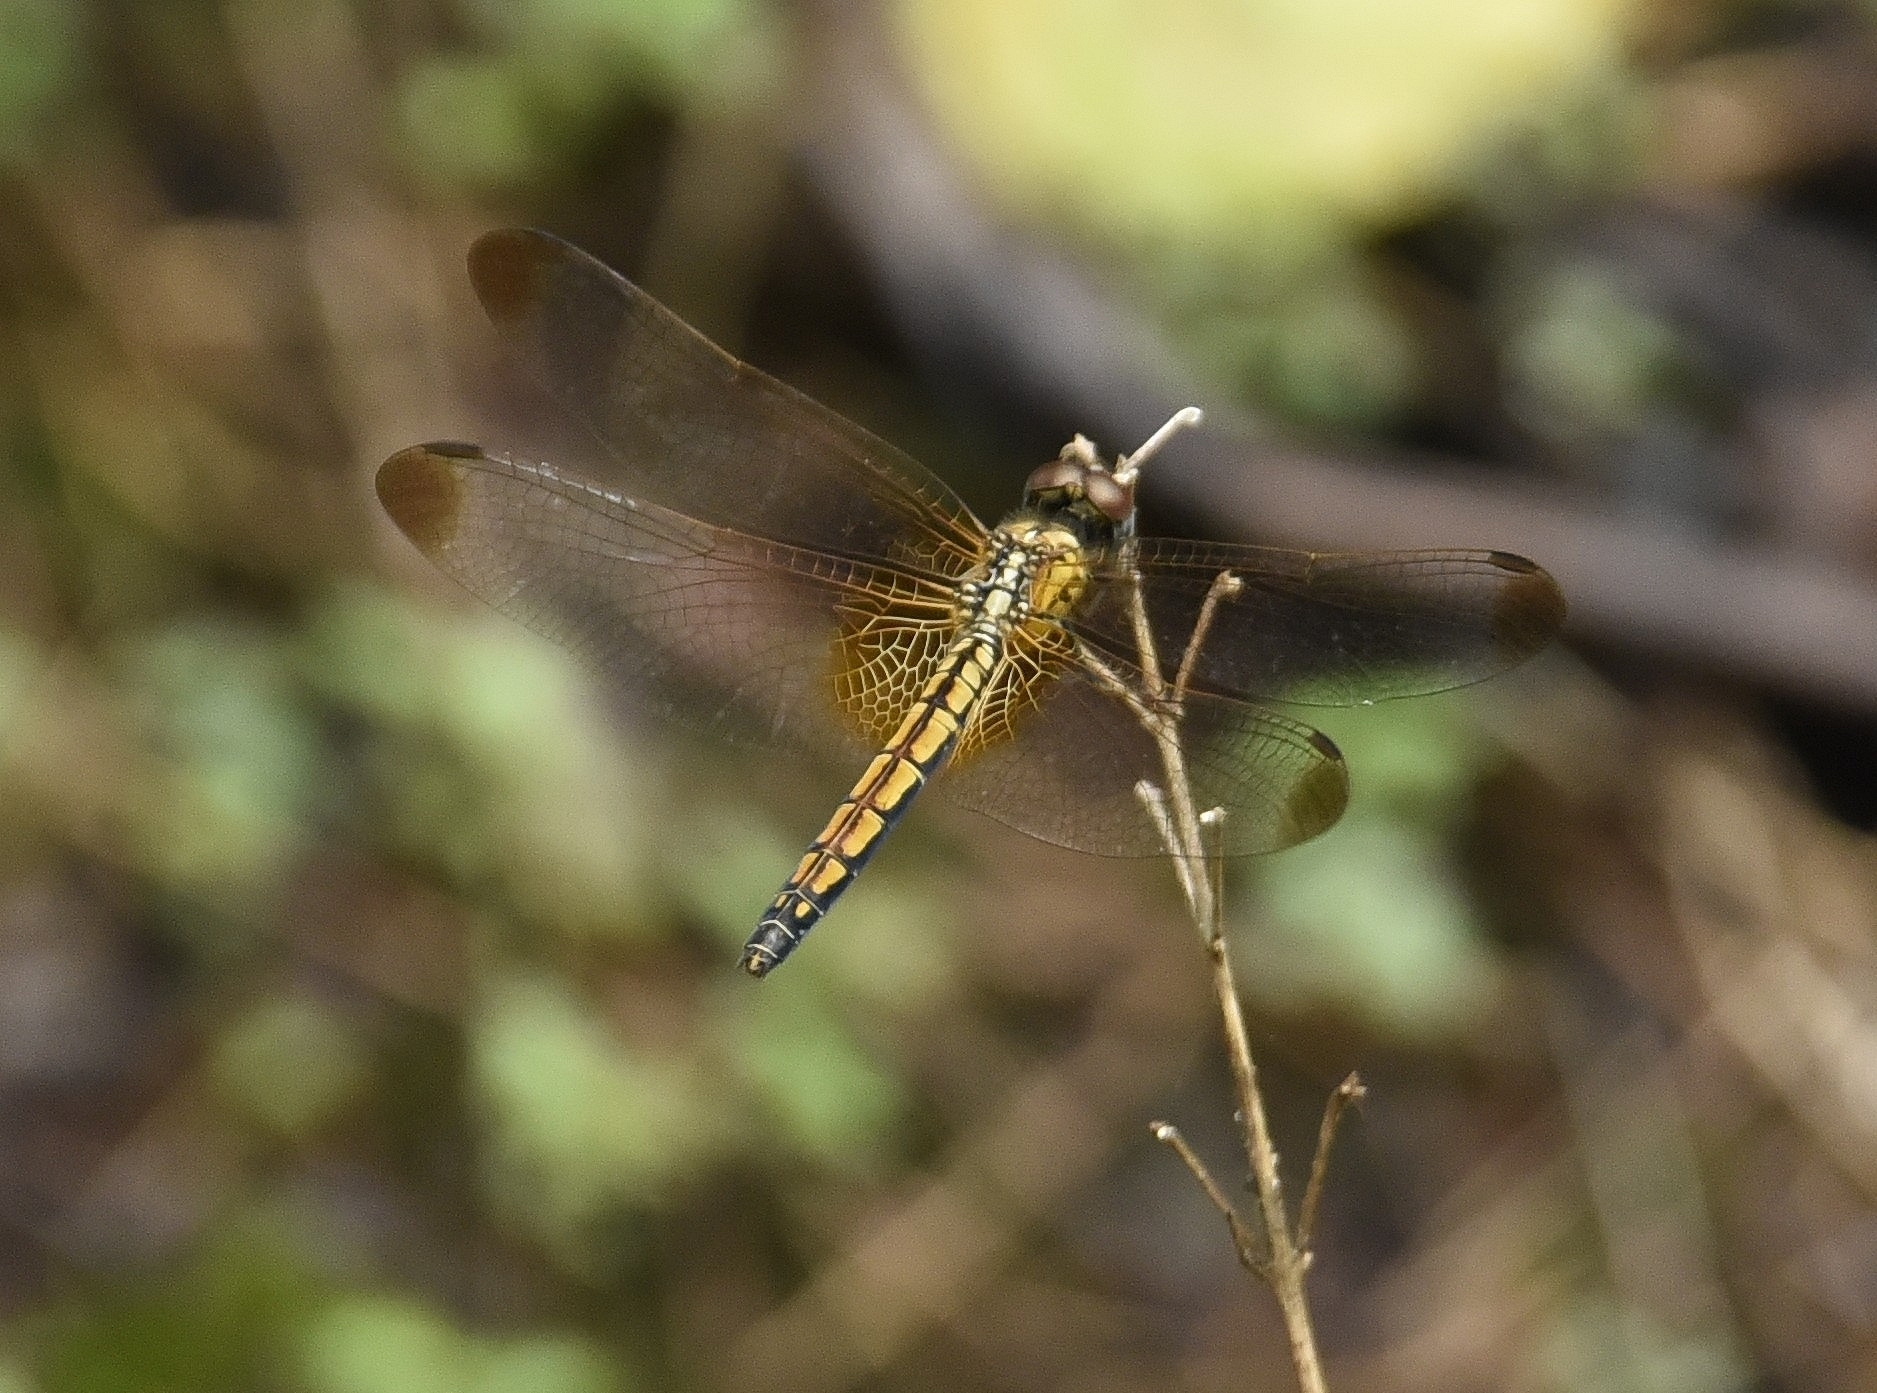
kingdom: Animalia
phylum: Arthropoda
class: Insecta
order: Odonata
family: Libellulidae
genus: Trithemis
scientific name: Trithemis aurora
